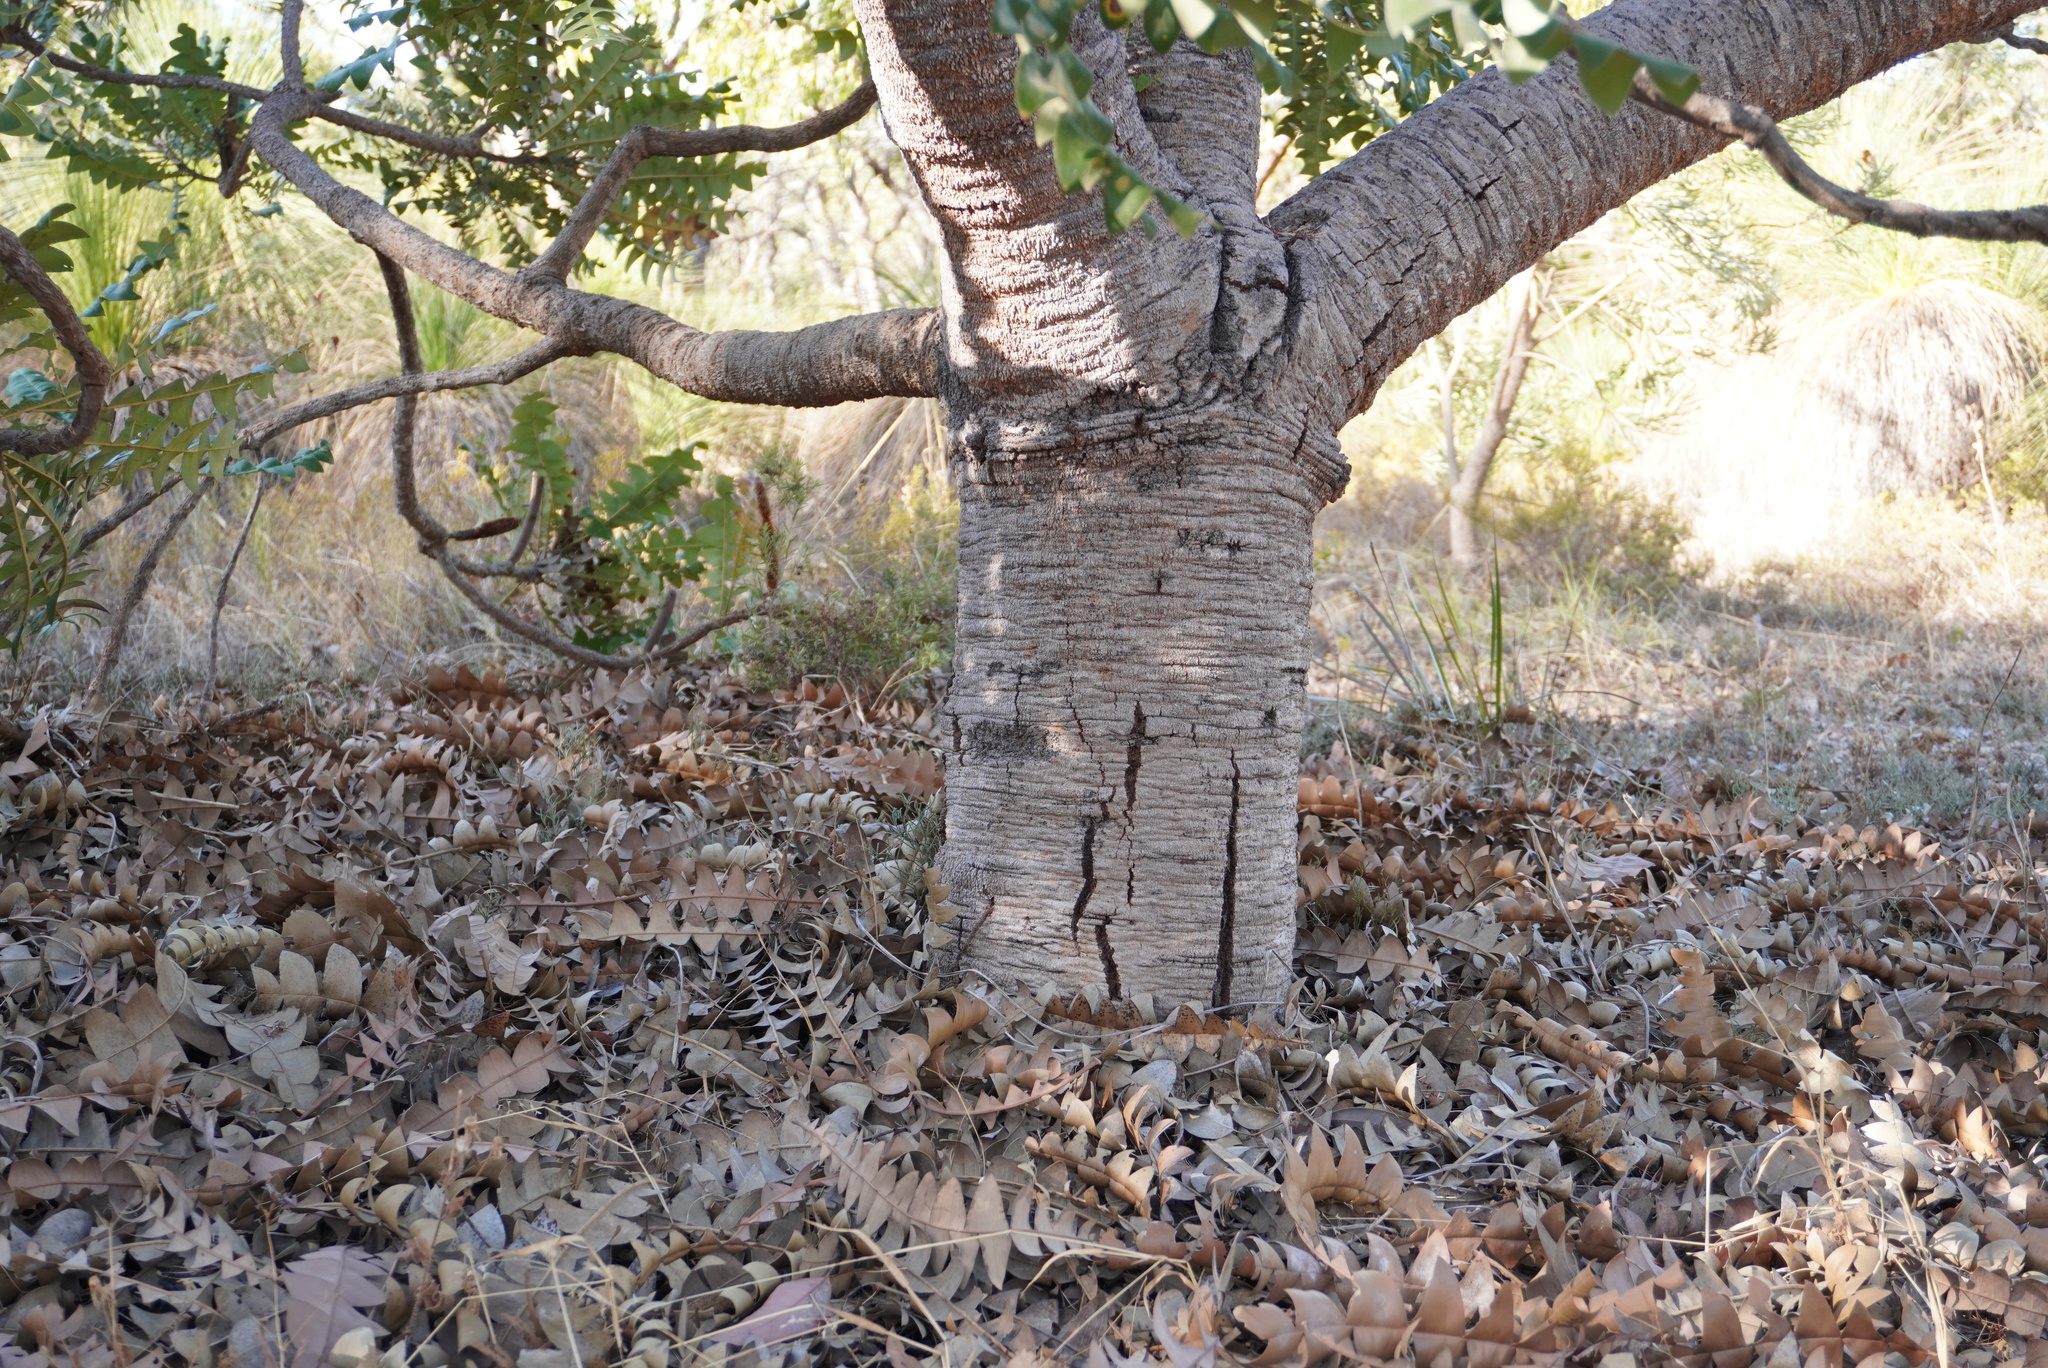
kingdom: Plantae
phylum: Tracheophyta
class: Magnoliopsida
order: Proteales
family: Proteaceae
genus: Banksia
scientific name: Banksia grandis
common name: Giant banksia
